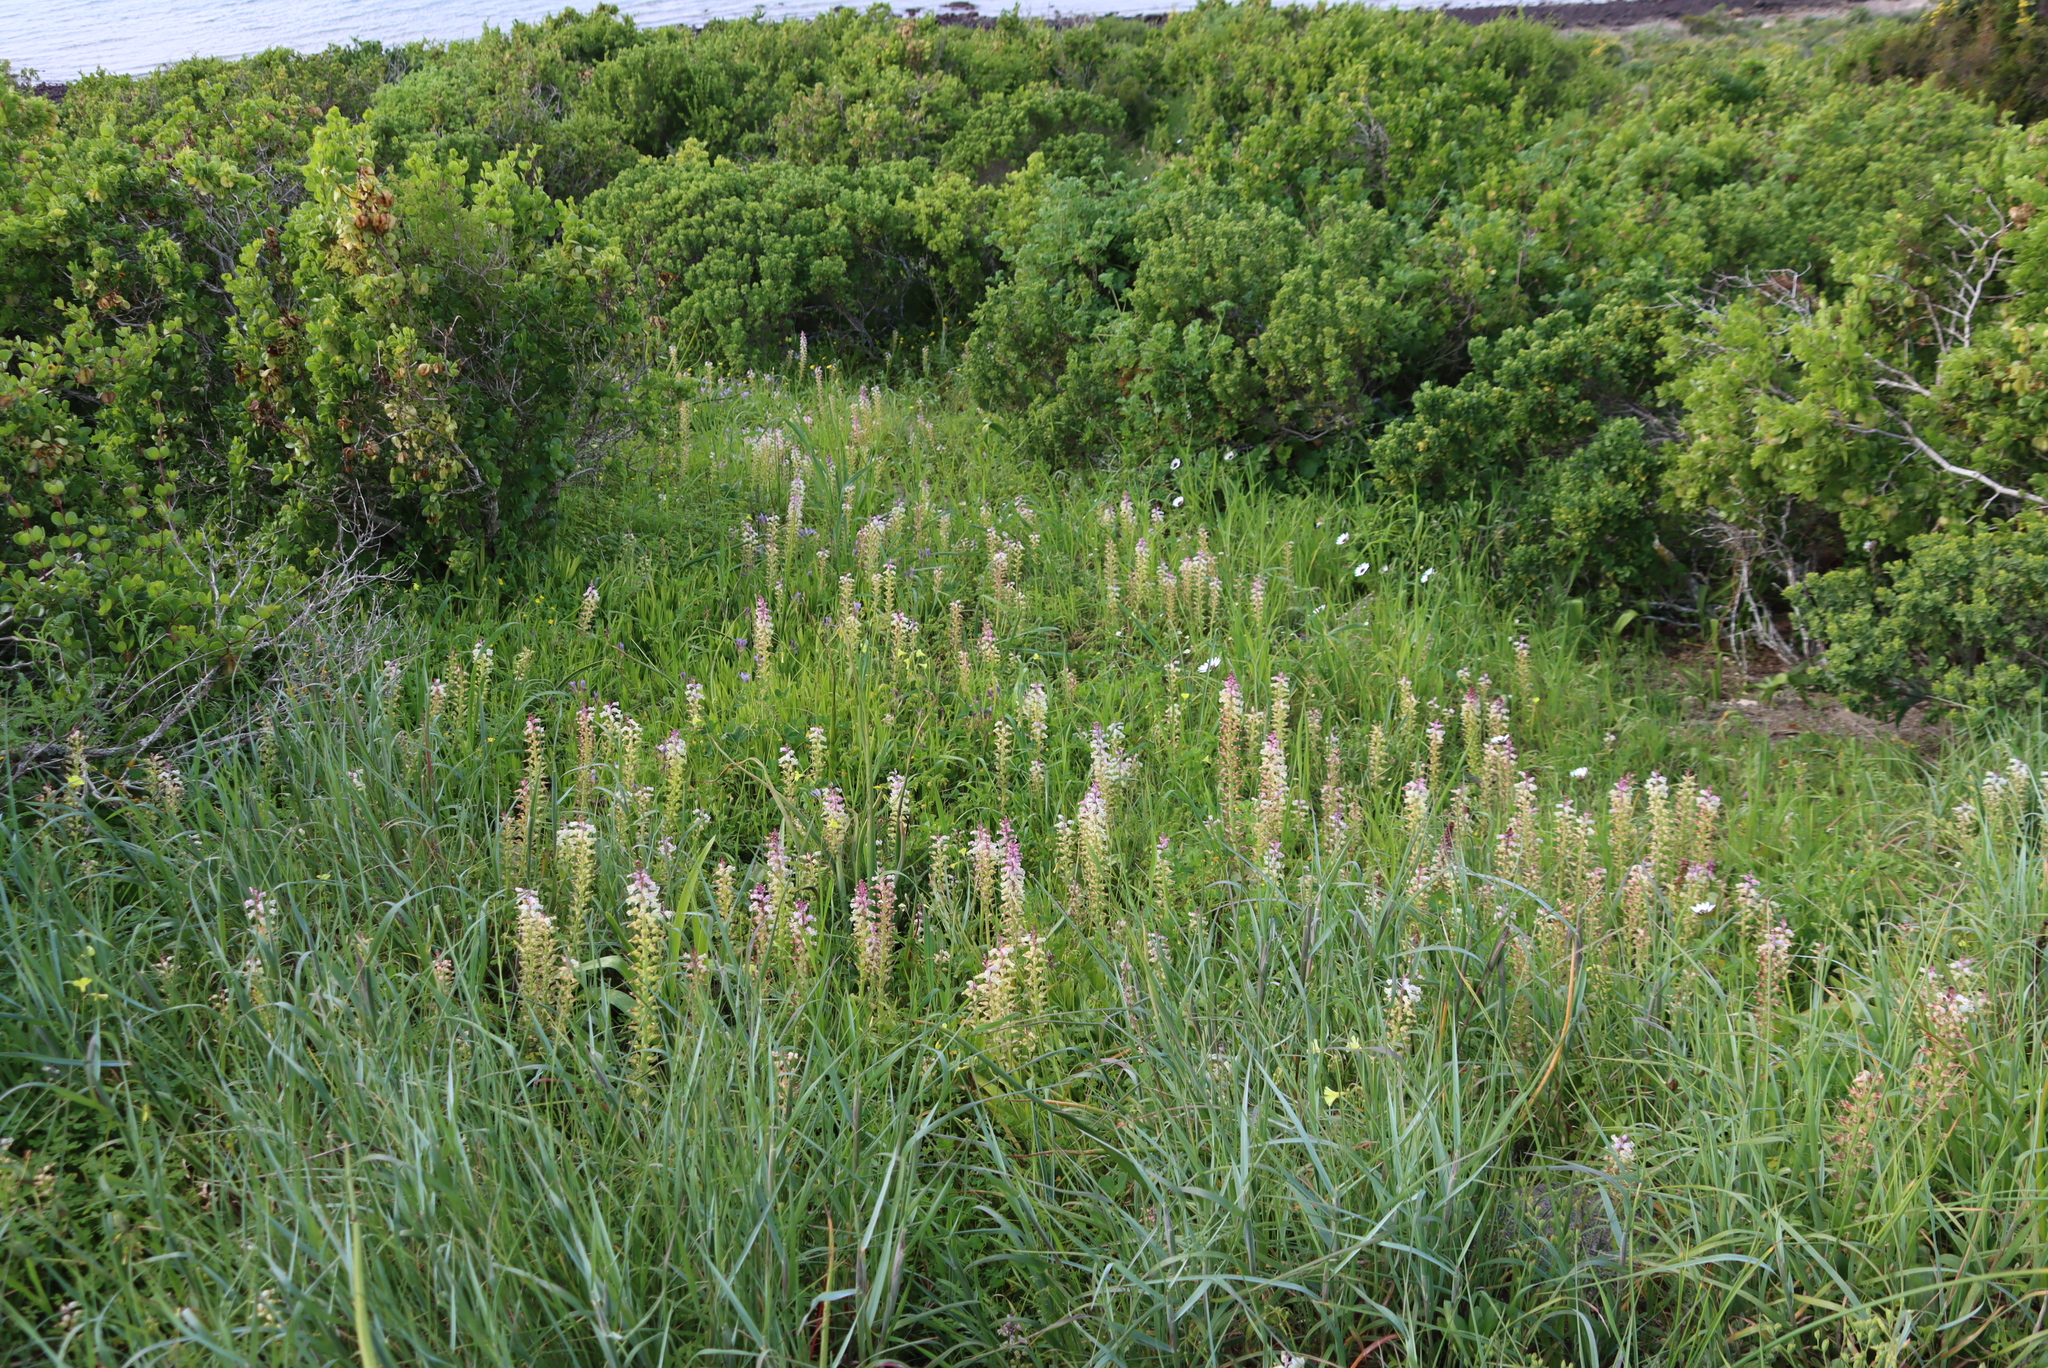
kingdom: Plantae
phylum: Tracheophyta
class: Liliopsida
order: Asparagales
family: Asparagaceae
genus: Lachenalia
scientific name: Lachenalia pallida
